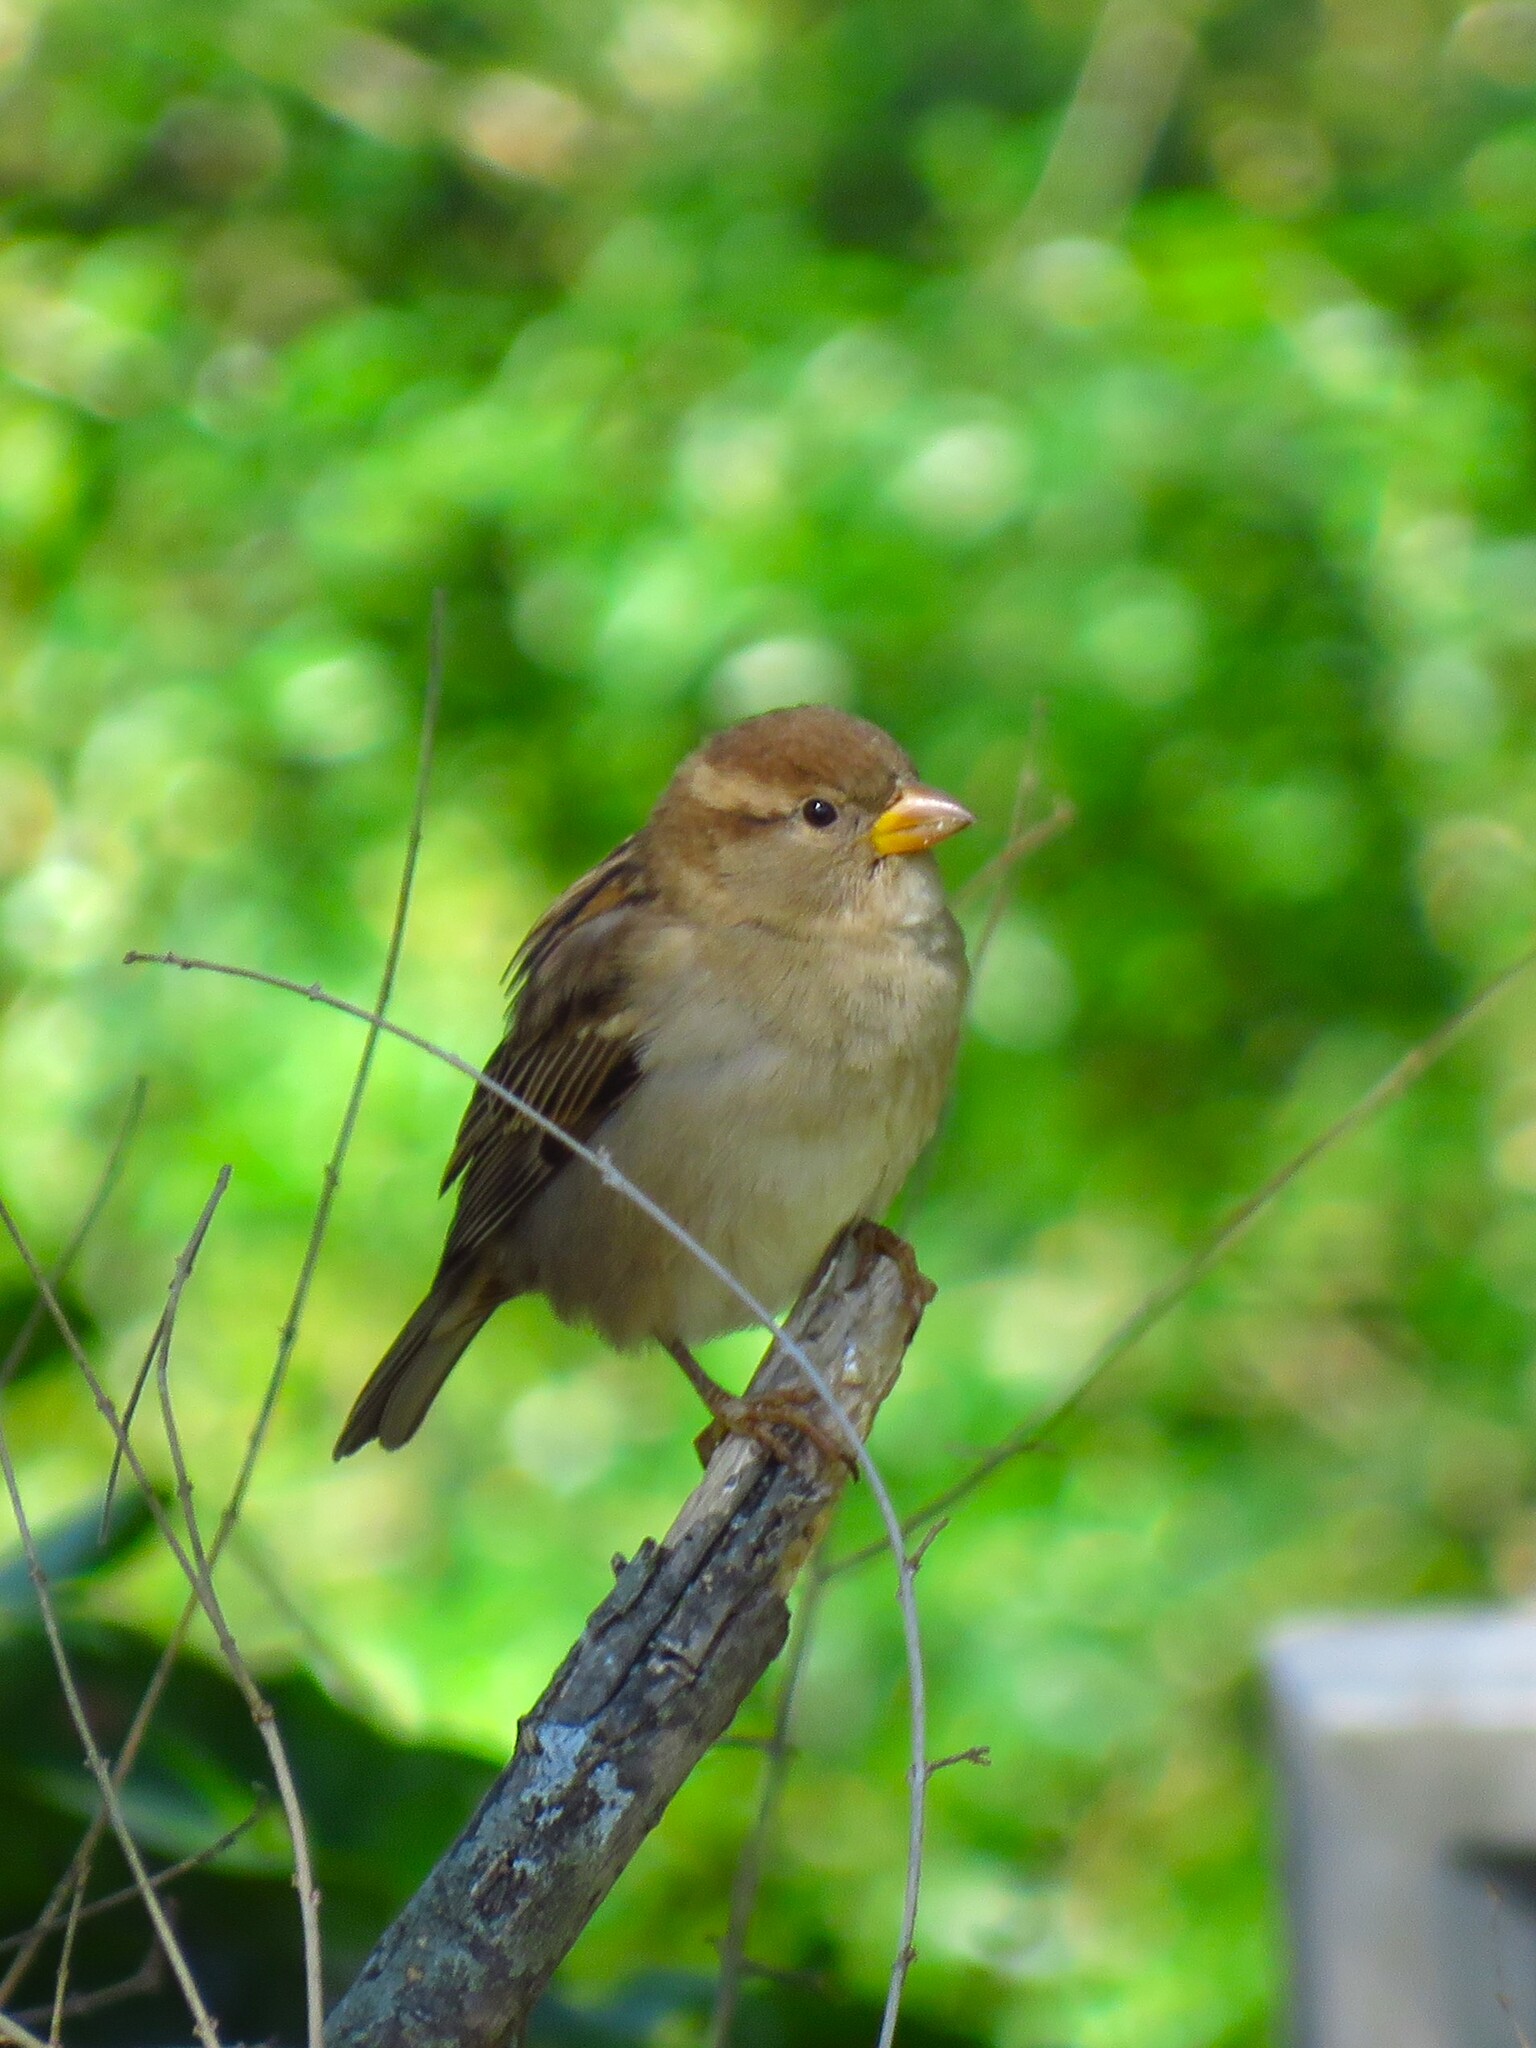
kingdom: Animalia
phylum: Chordata
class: Aves
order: Passeriformes
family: Passeridae
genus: Passer
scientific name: Passer domesticus
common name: House sparrow
